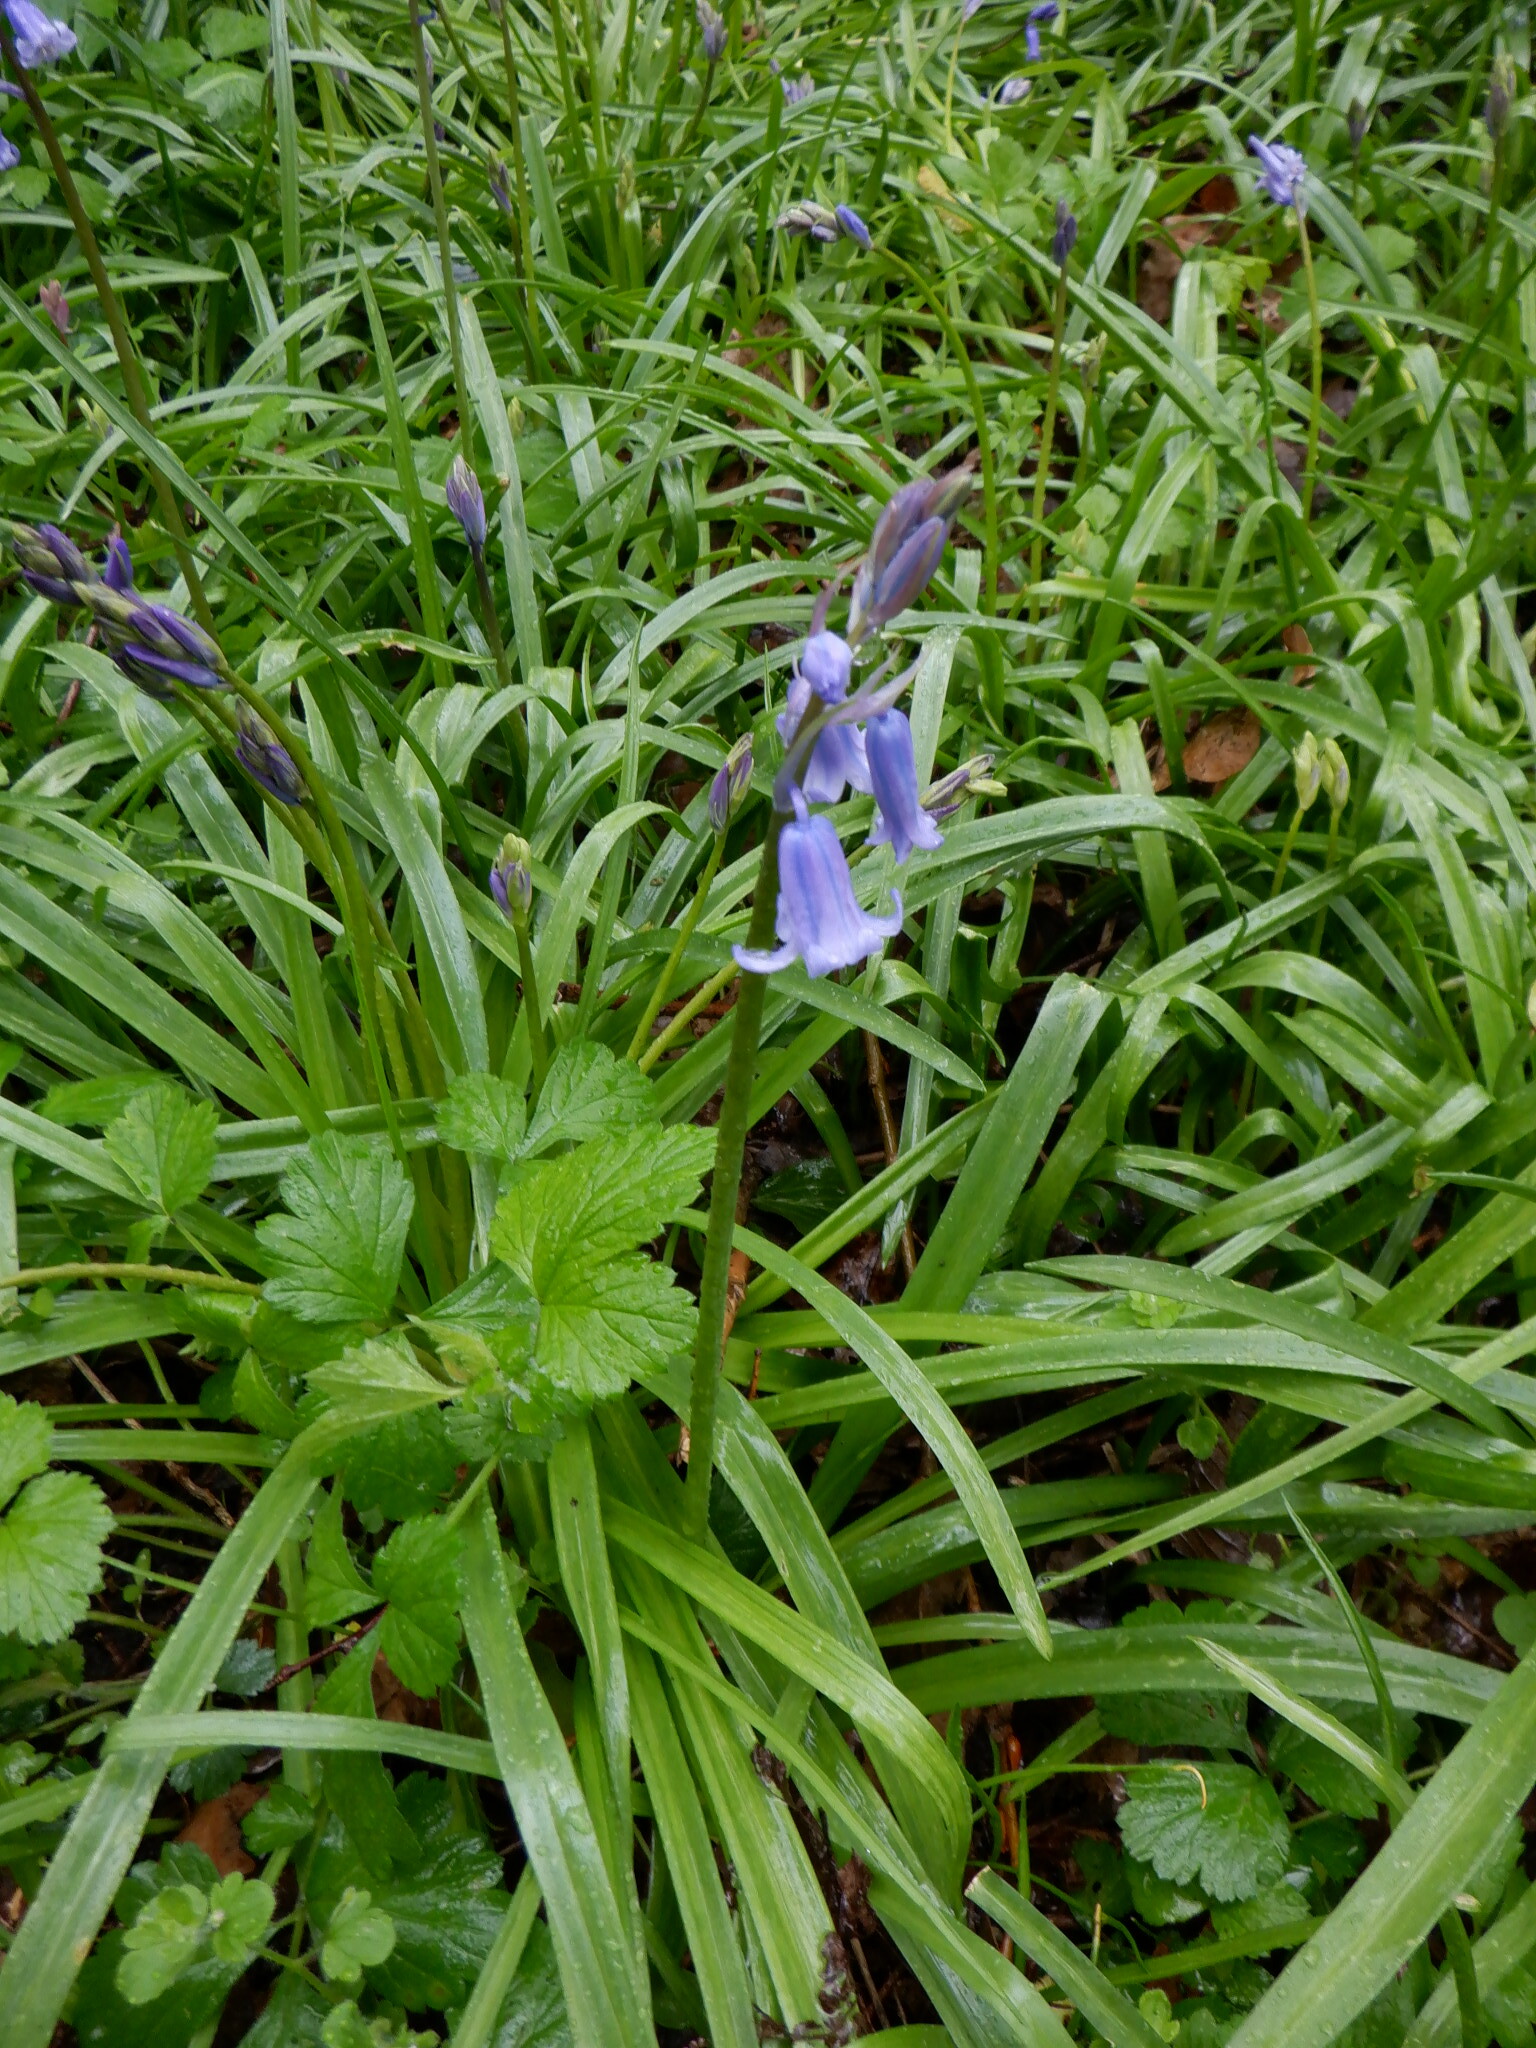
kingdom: Plantae
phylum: Tracheophyta
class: Liliopsida
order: Asparagales
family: Asparagaceae
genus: Hyacinthoides
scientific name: Hyacinthoides massartiana
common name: Hyacinthoides
